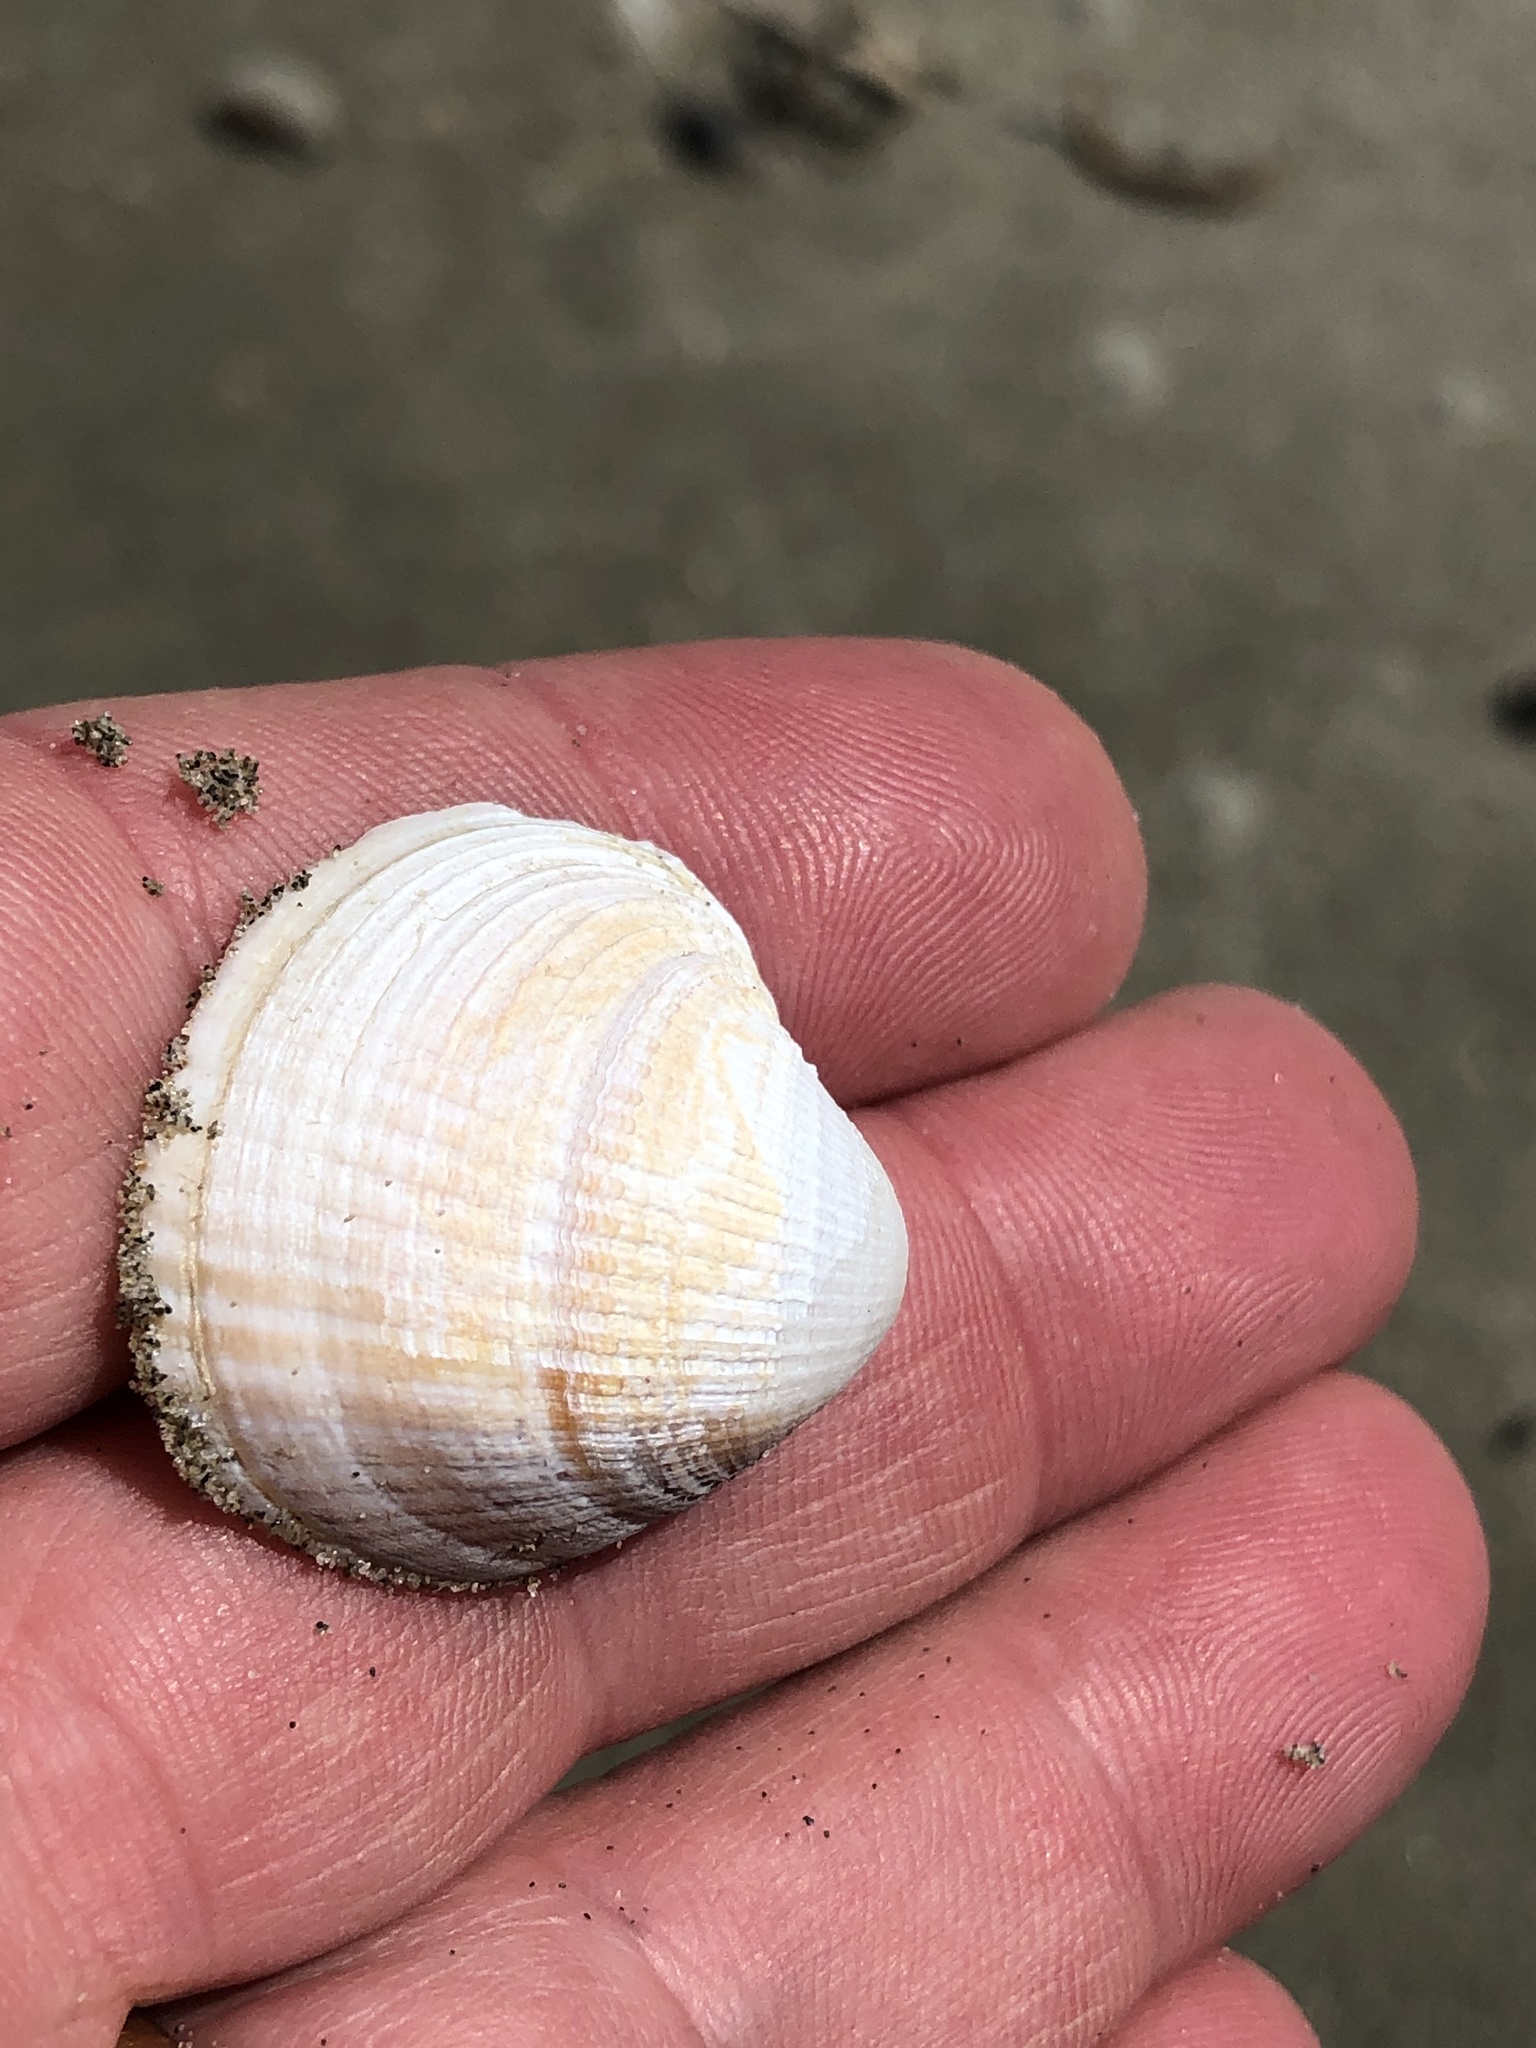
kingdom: Animalia
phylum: Mollusca
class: Bivalvia
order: Venerida
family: Veneridae
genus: Austrovenus
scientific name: Austrovenus stutchburyi
